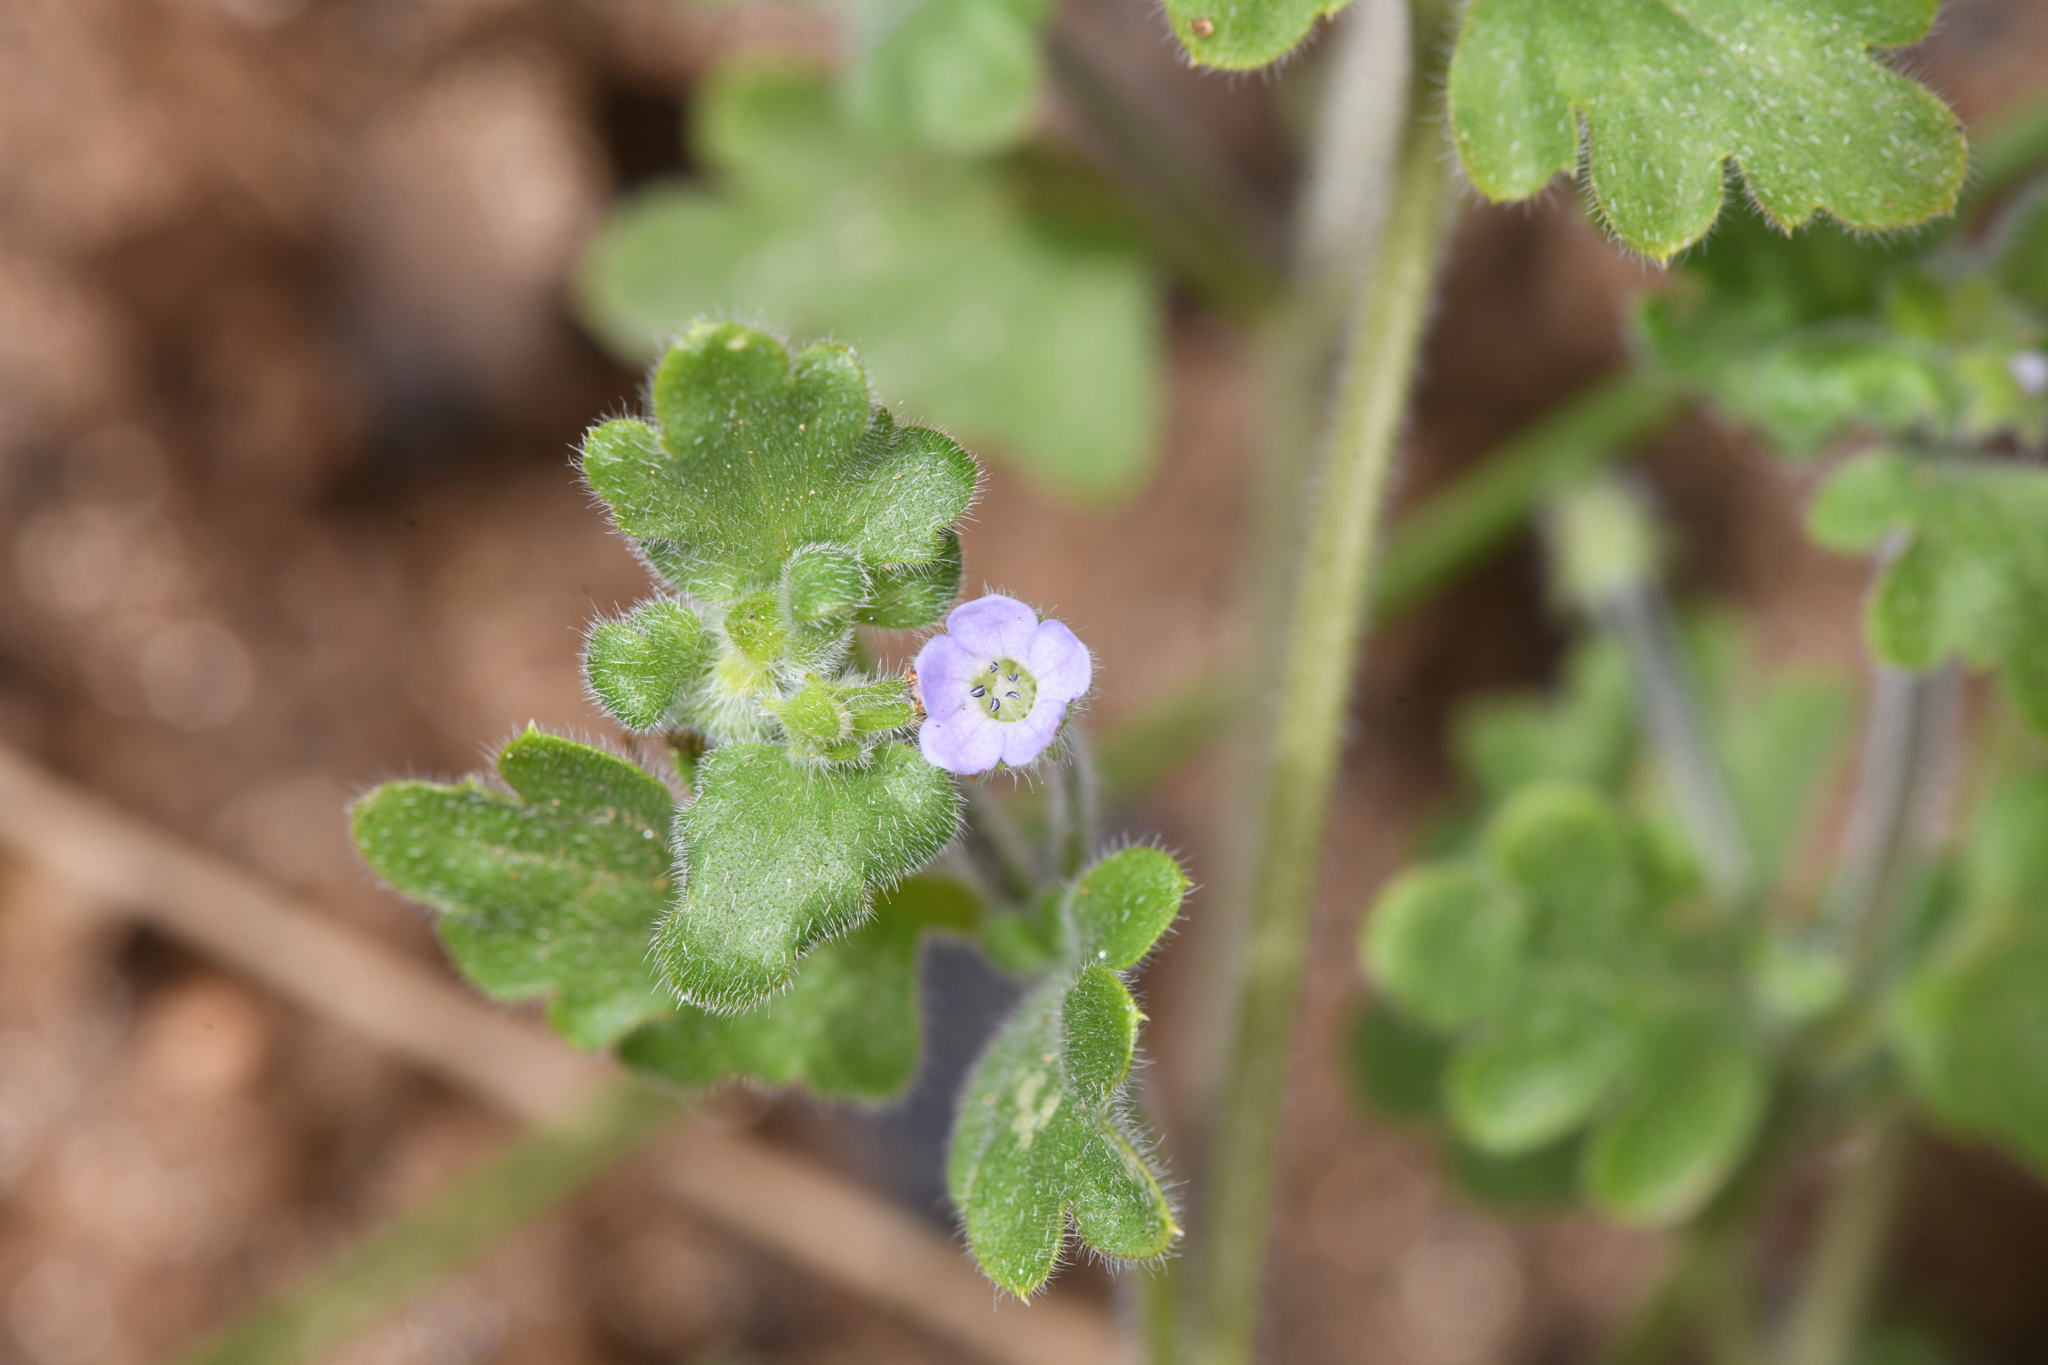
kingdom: Plantae
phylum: Tracheophyta
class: Magnoliopsida
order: Boraginales
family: Hydrophyllaceae
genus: Nemophila
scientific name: Nemophila parviflora
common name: Small-flowered baby-blue-eyes
